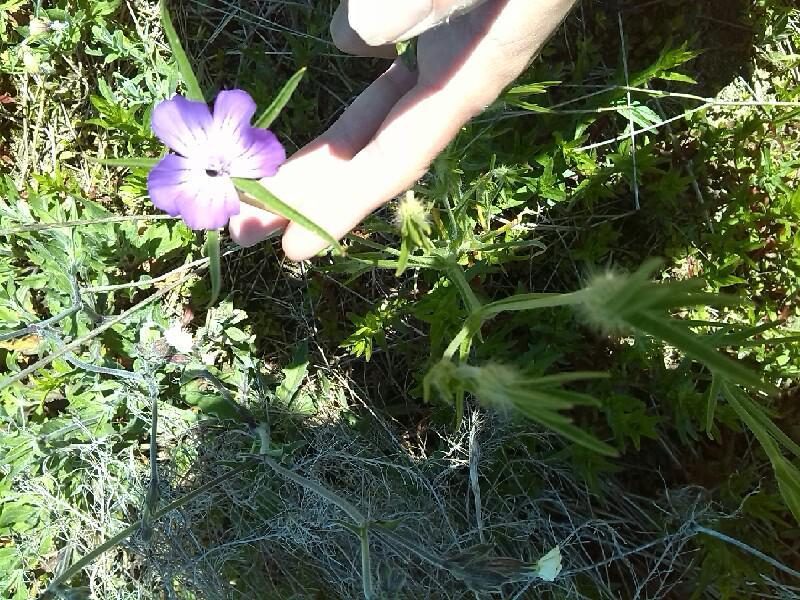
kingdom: Plantae
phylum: Tracheophyta
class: Magnoliopsida
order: Caryophyllales
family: Caryophyllaceae
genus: Agrostemma
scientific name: Agrostemma githago
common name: Common corncockle
